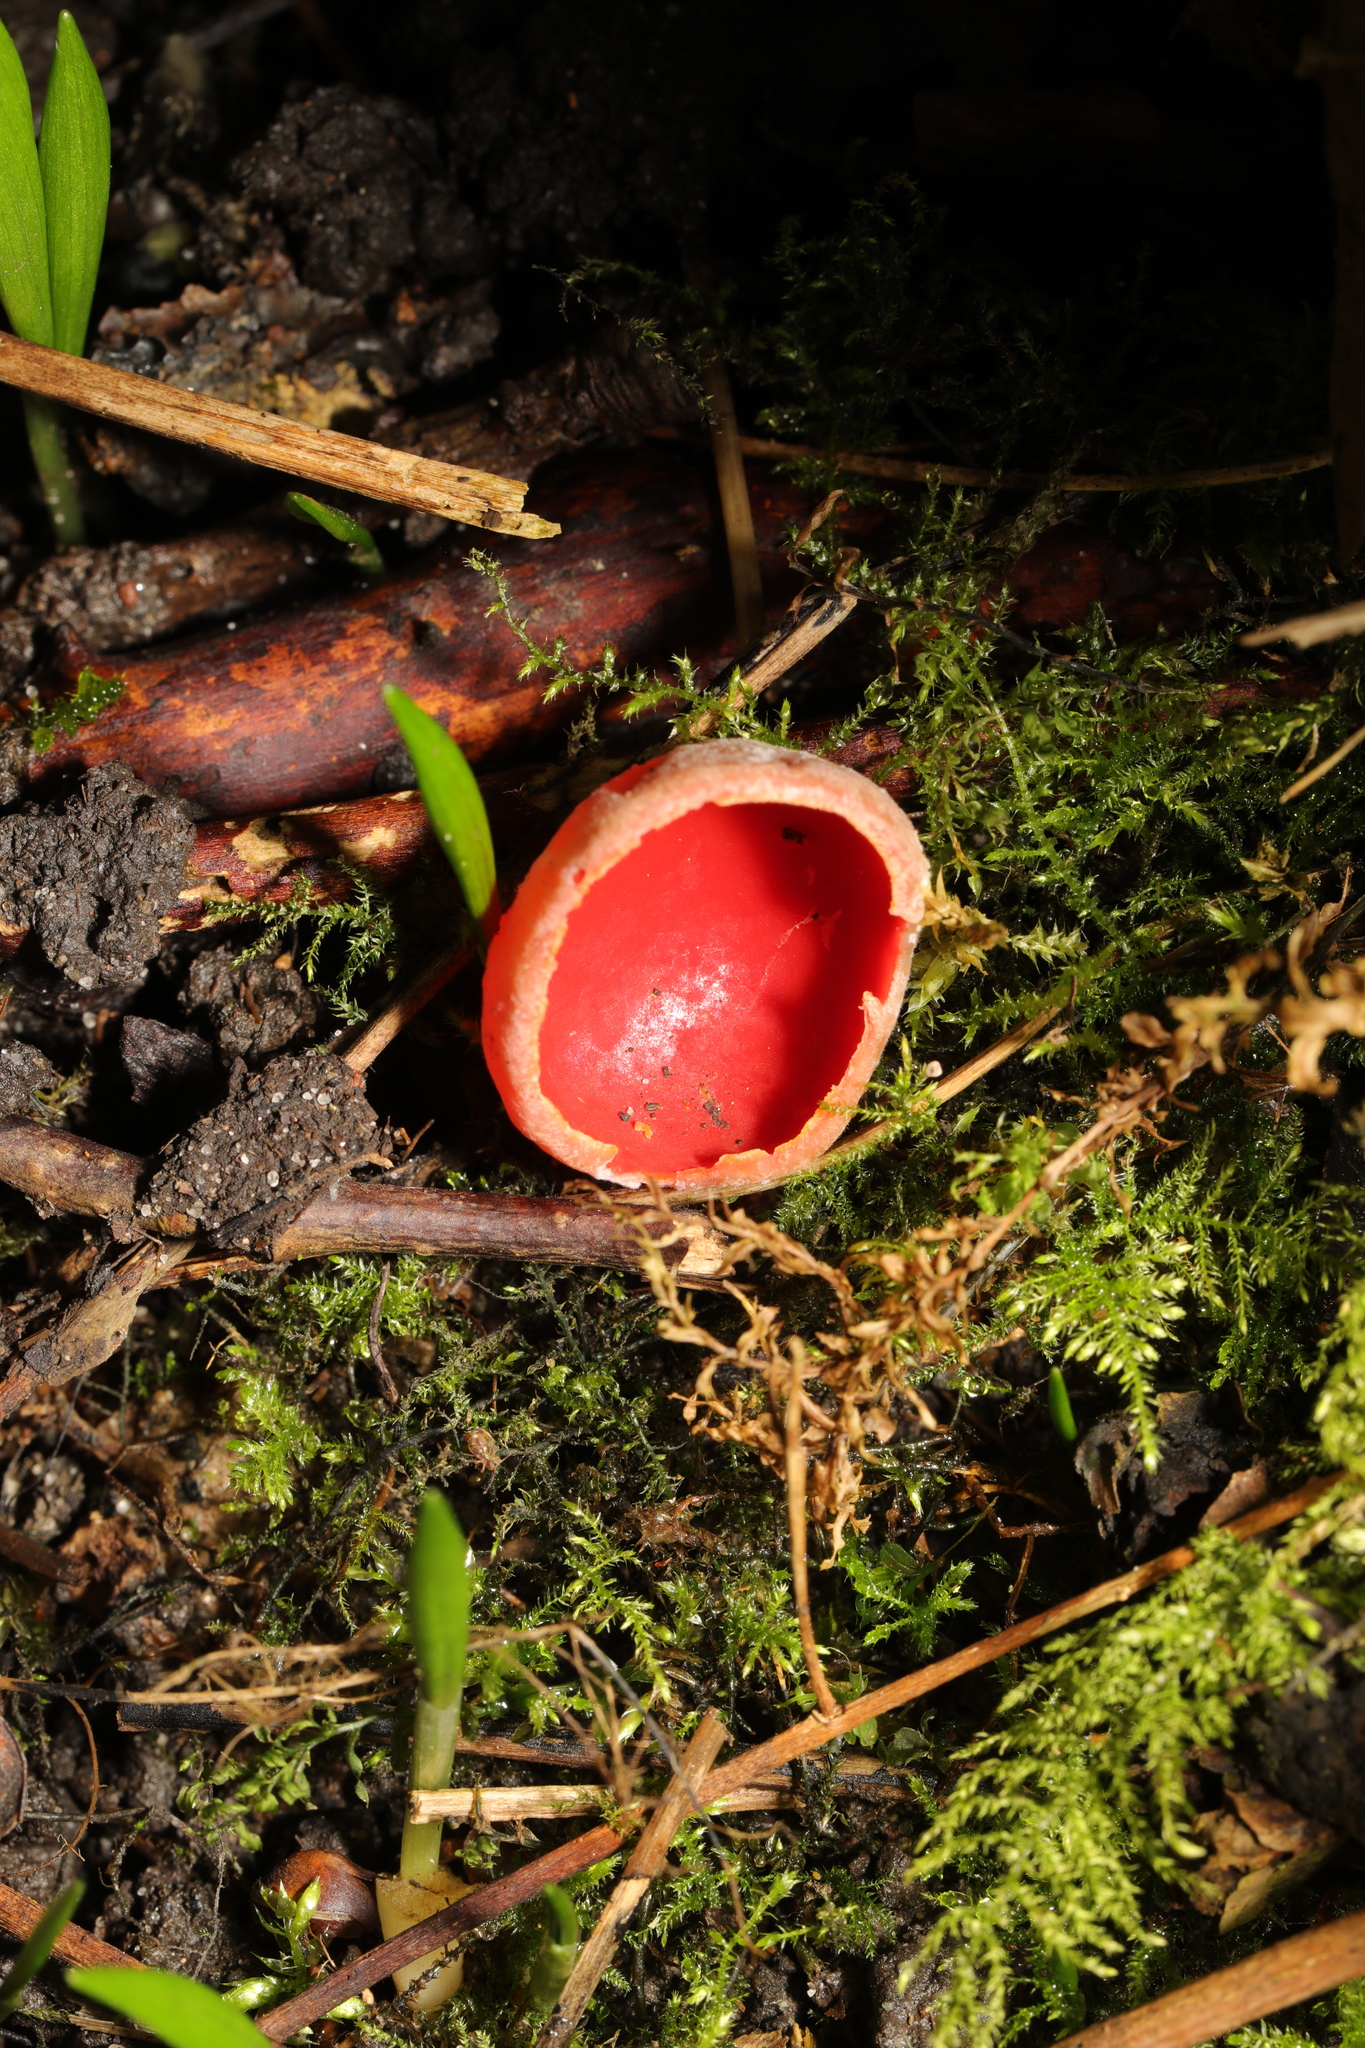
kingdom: Fungi
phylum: Ascomycota
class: Pezizomycetes
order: Pezizales
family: Sarcoscyphaceae
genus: Sarcoscypha
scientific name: Sarcoscypha
